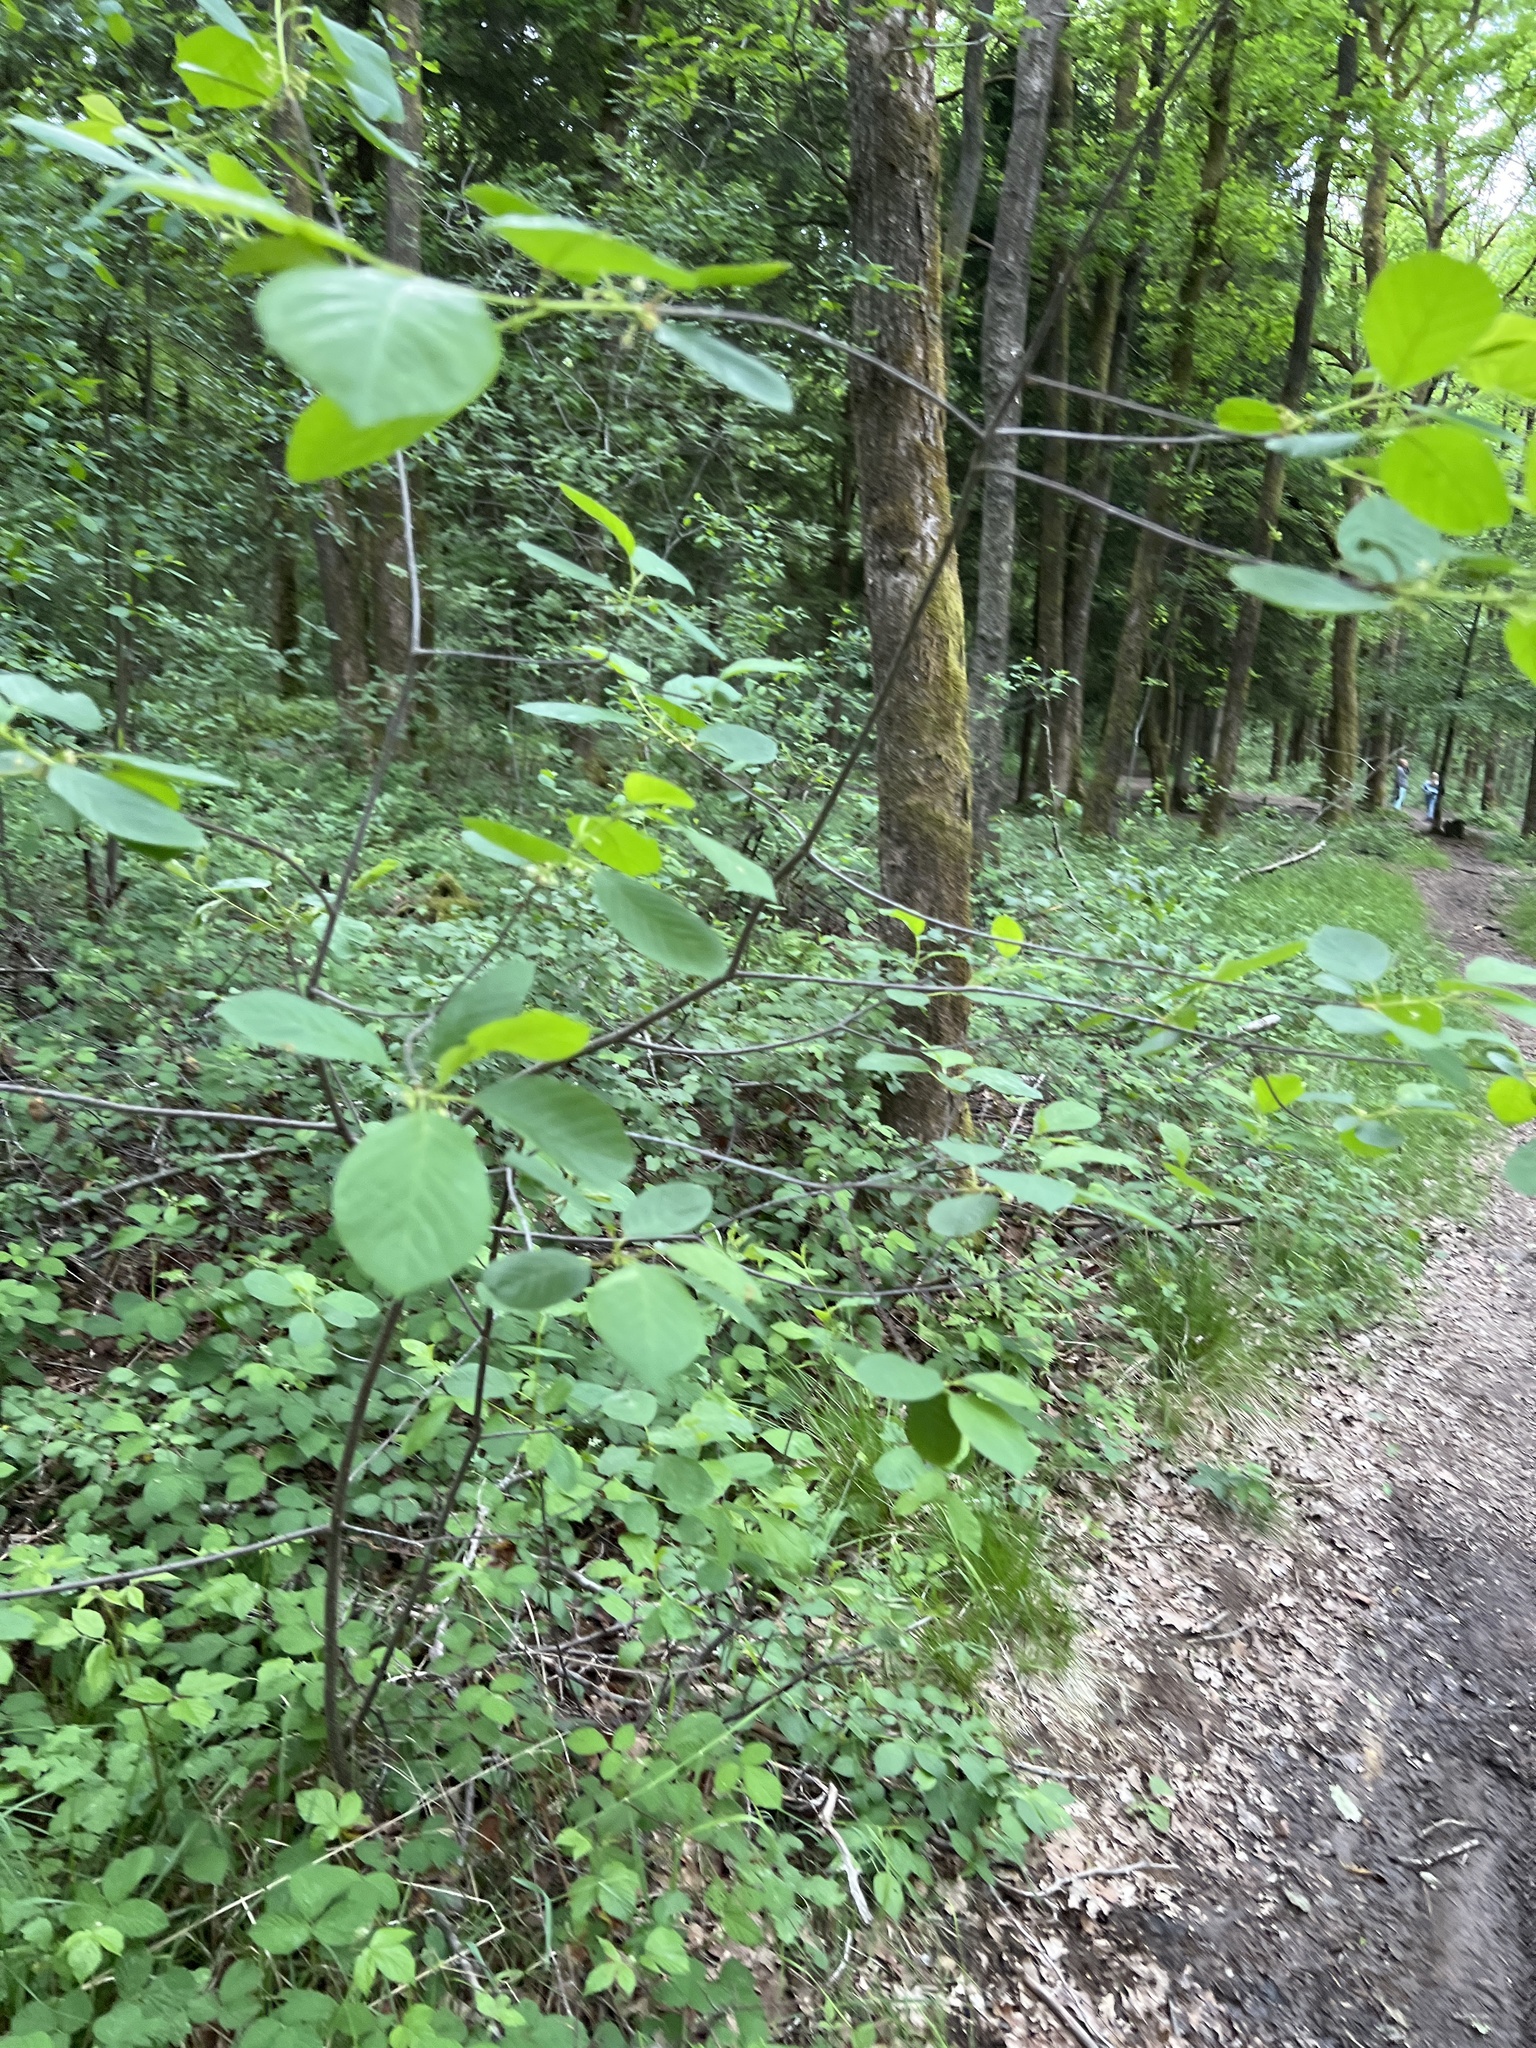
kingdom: Plantae
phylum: Tracheophyta
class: Magnoliopsida
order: Rosales
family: Rhamnaceae
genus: Frangula
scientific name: Frangula alnus
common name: Alder buckthorn
